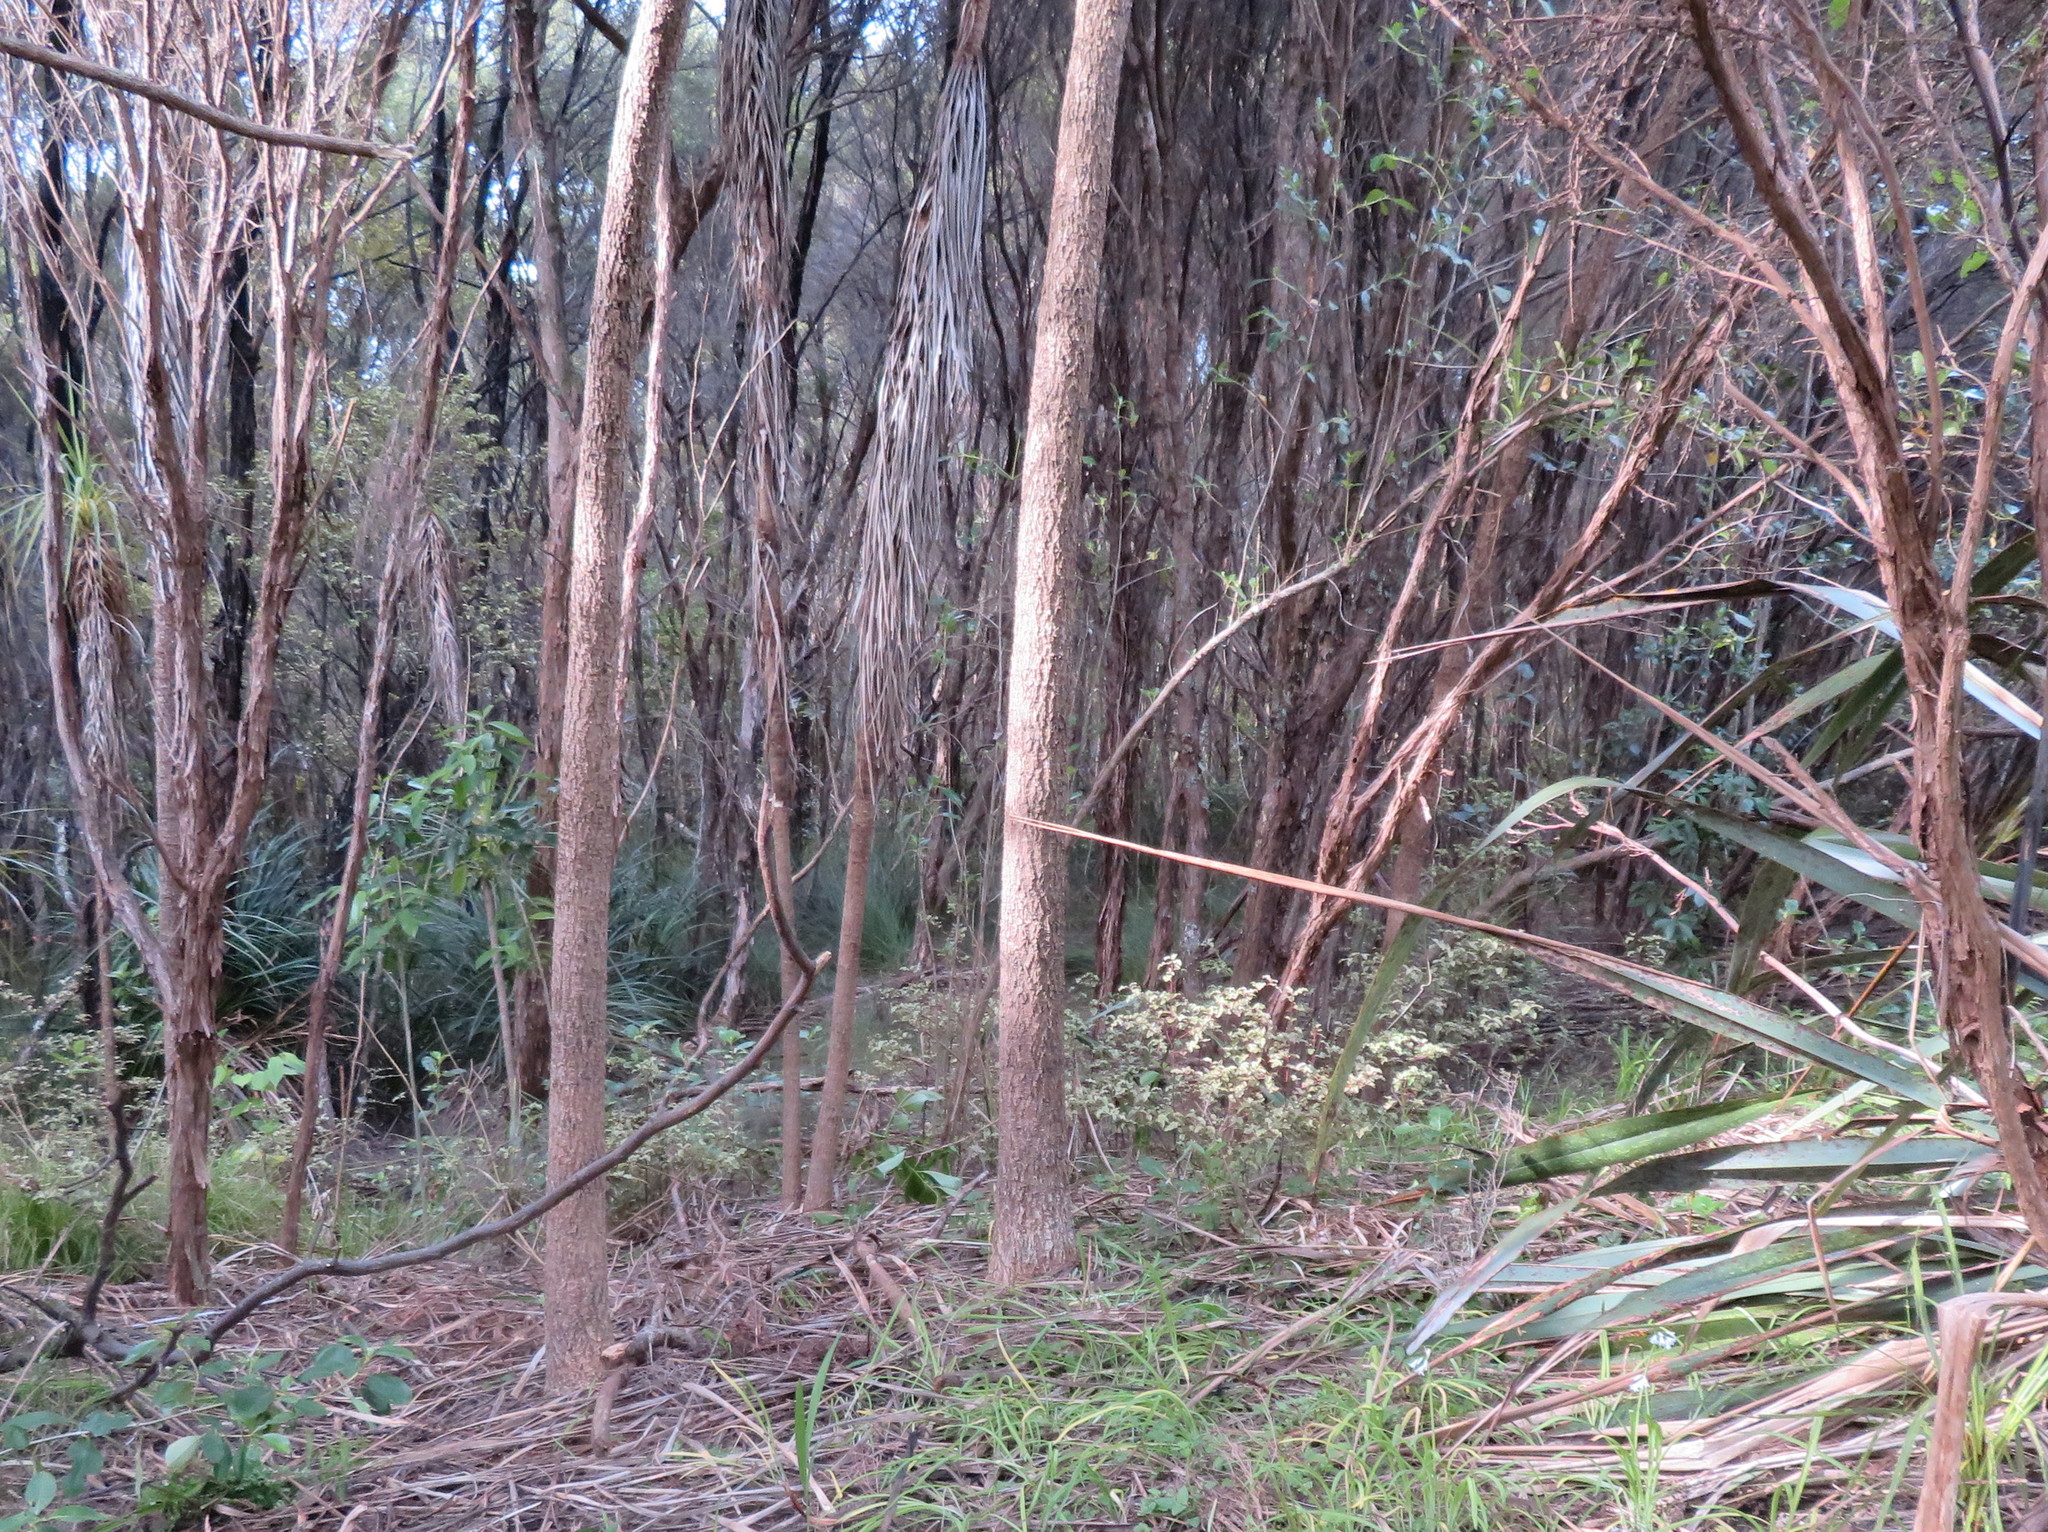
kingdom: Plantae
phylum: Tracheophyta
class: Magnoliopsida
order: Ericales
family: Primulaceae
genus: Myrsine
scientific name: Myrsine australis
